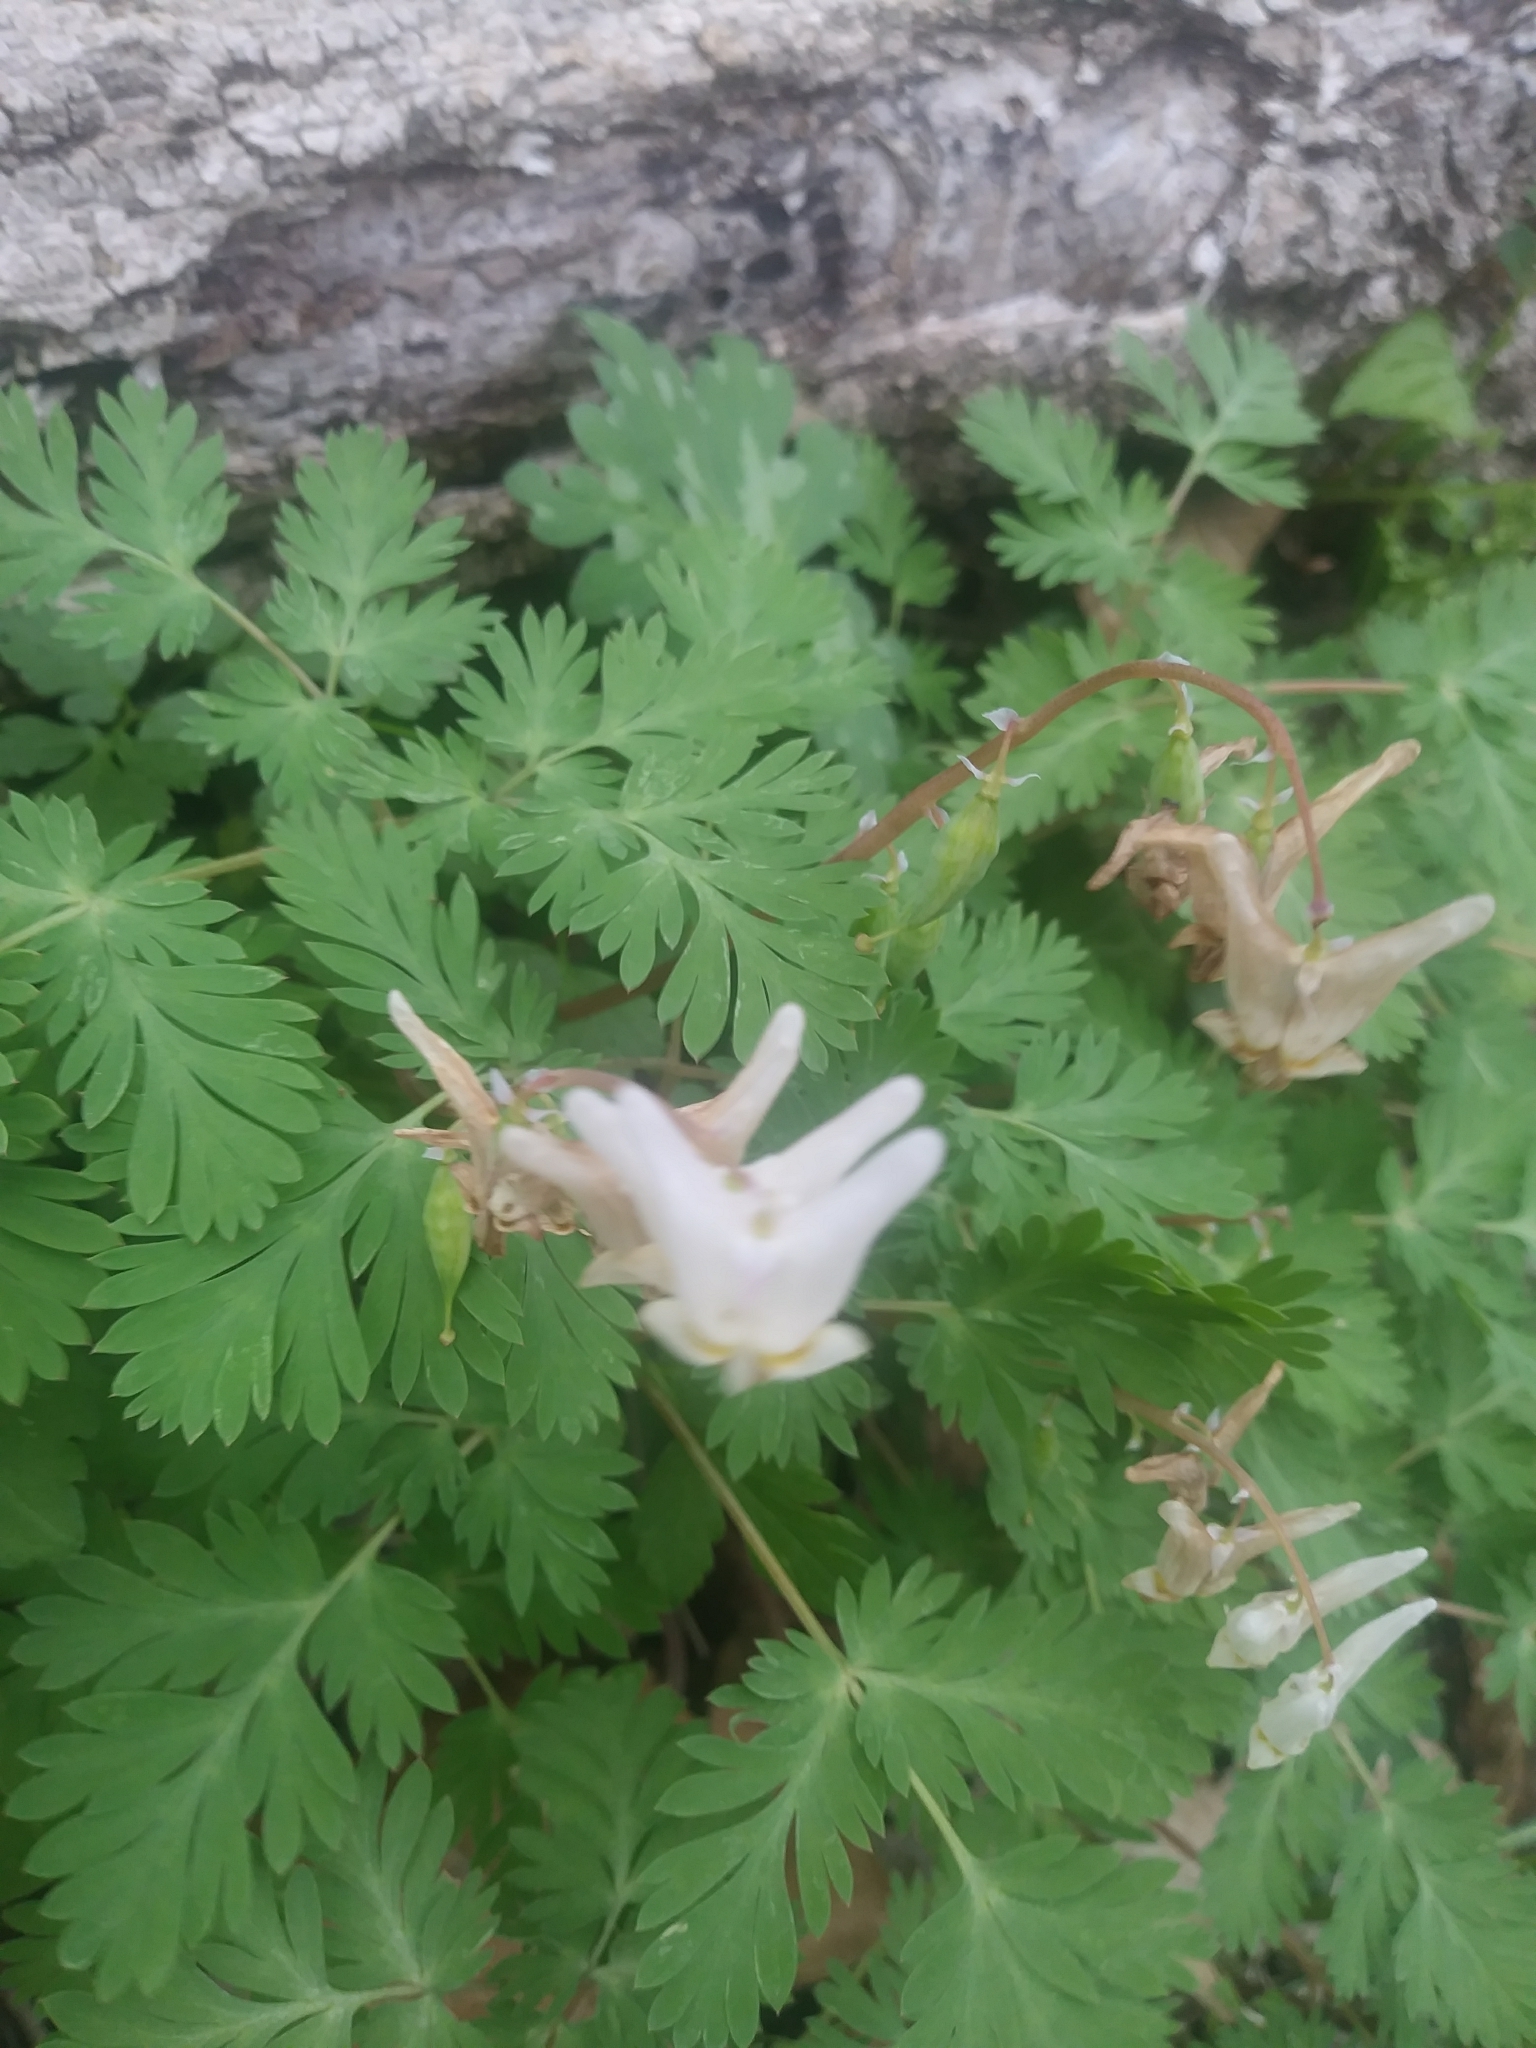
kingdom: Plantae
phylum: Tracheophyta
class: Magnoliopsida
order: Ranunculales
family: Papaveraceae
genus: Dicentra
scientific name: Dicentra cucullaria
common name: Dutchman's breeches
